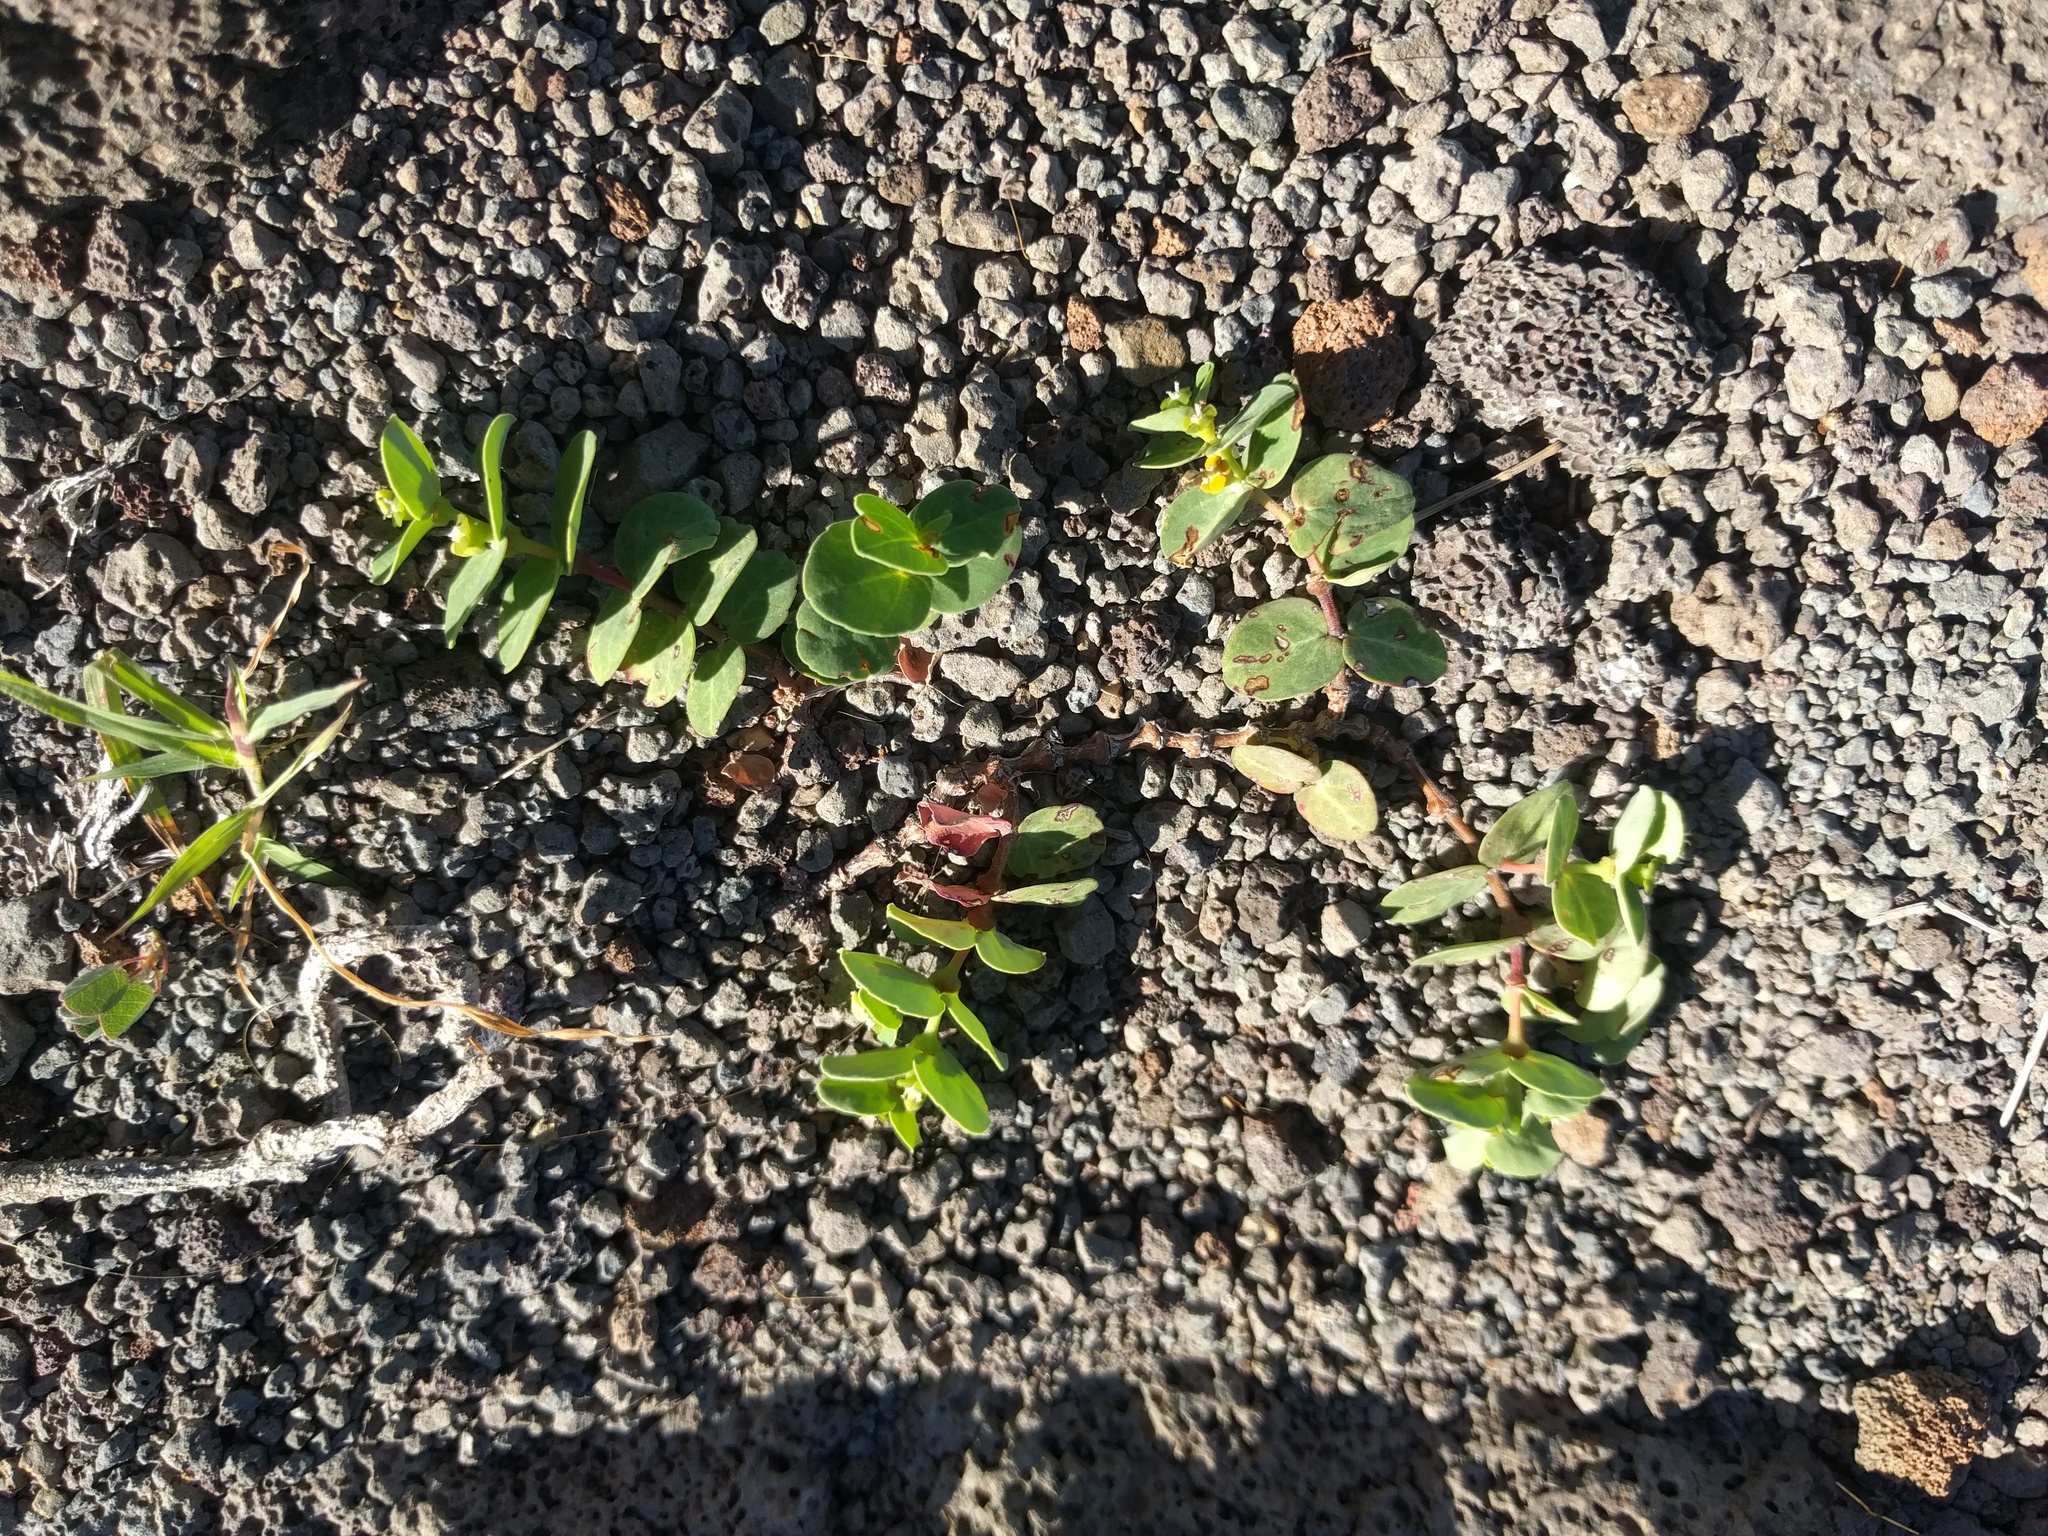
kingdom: Plantae
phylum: Tracheophyta
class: Magnoliopsida
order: Malpighiales
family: Euphorbiaceae
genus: Euphorbia
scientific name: Euphorbia degeneri
